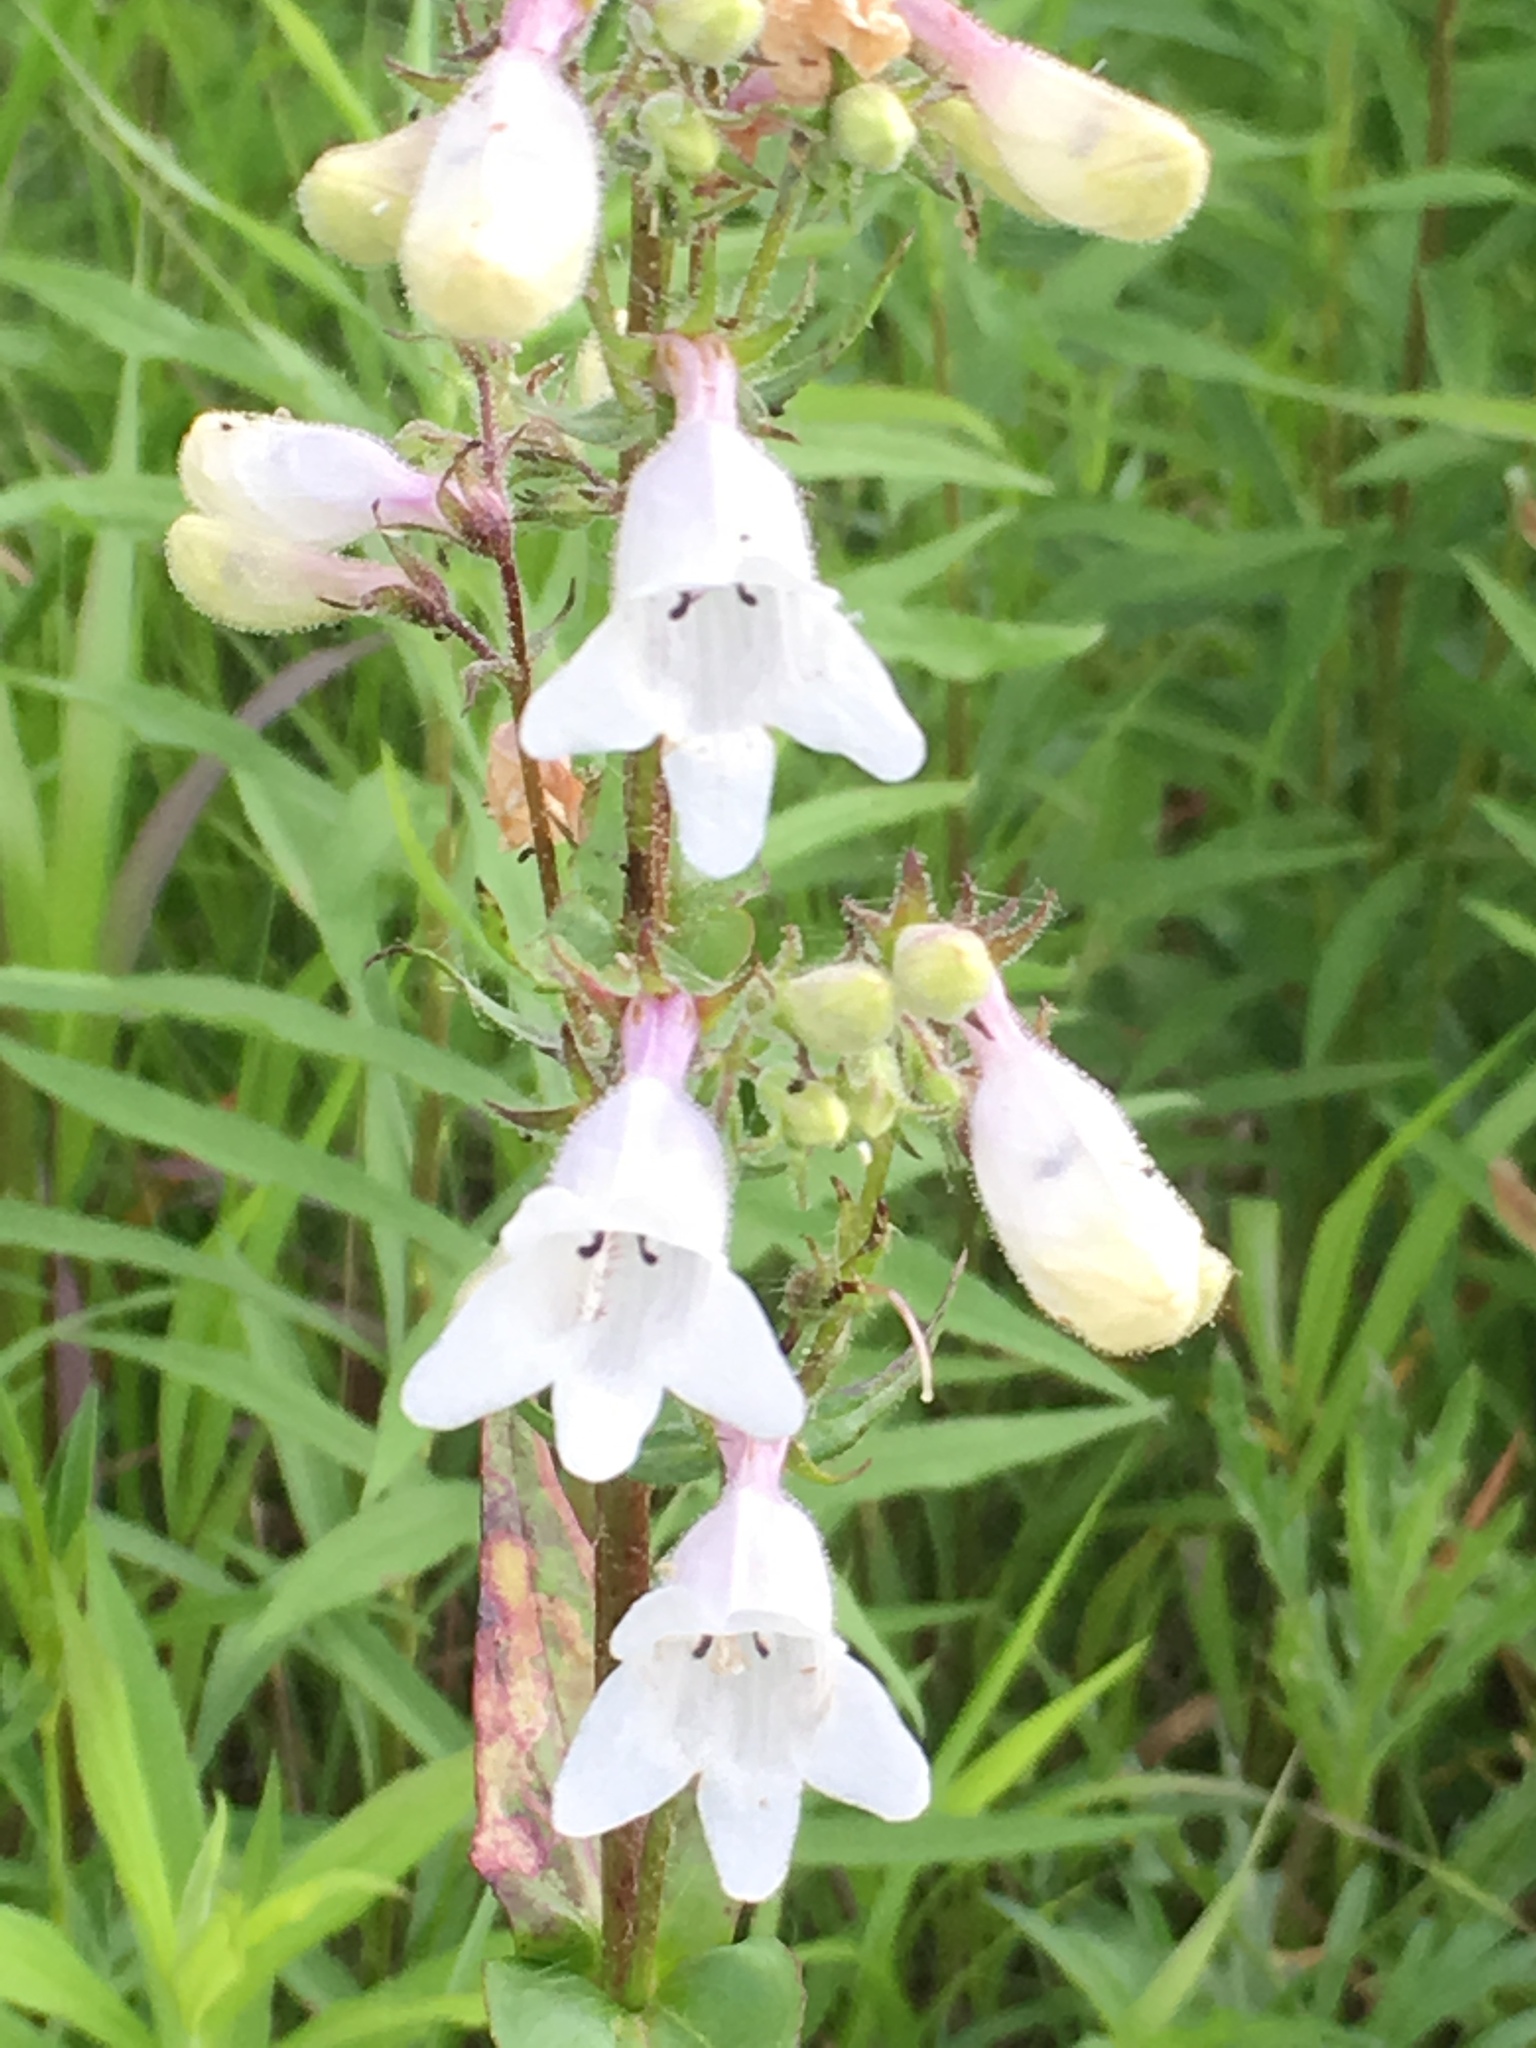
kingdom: Plantae
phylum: Tracheophyta
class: Magnoliopsida
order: Lamiales
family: Plantaginaceae
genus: Penstemon
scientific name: Penstemon digitalis
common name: Foxglove beardtongue
